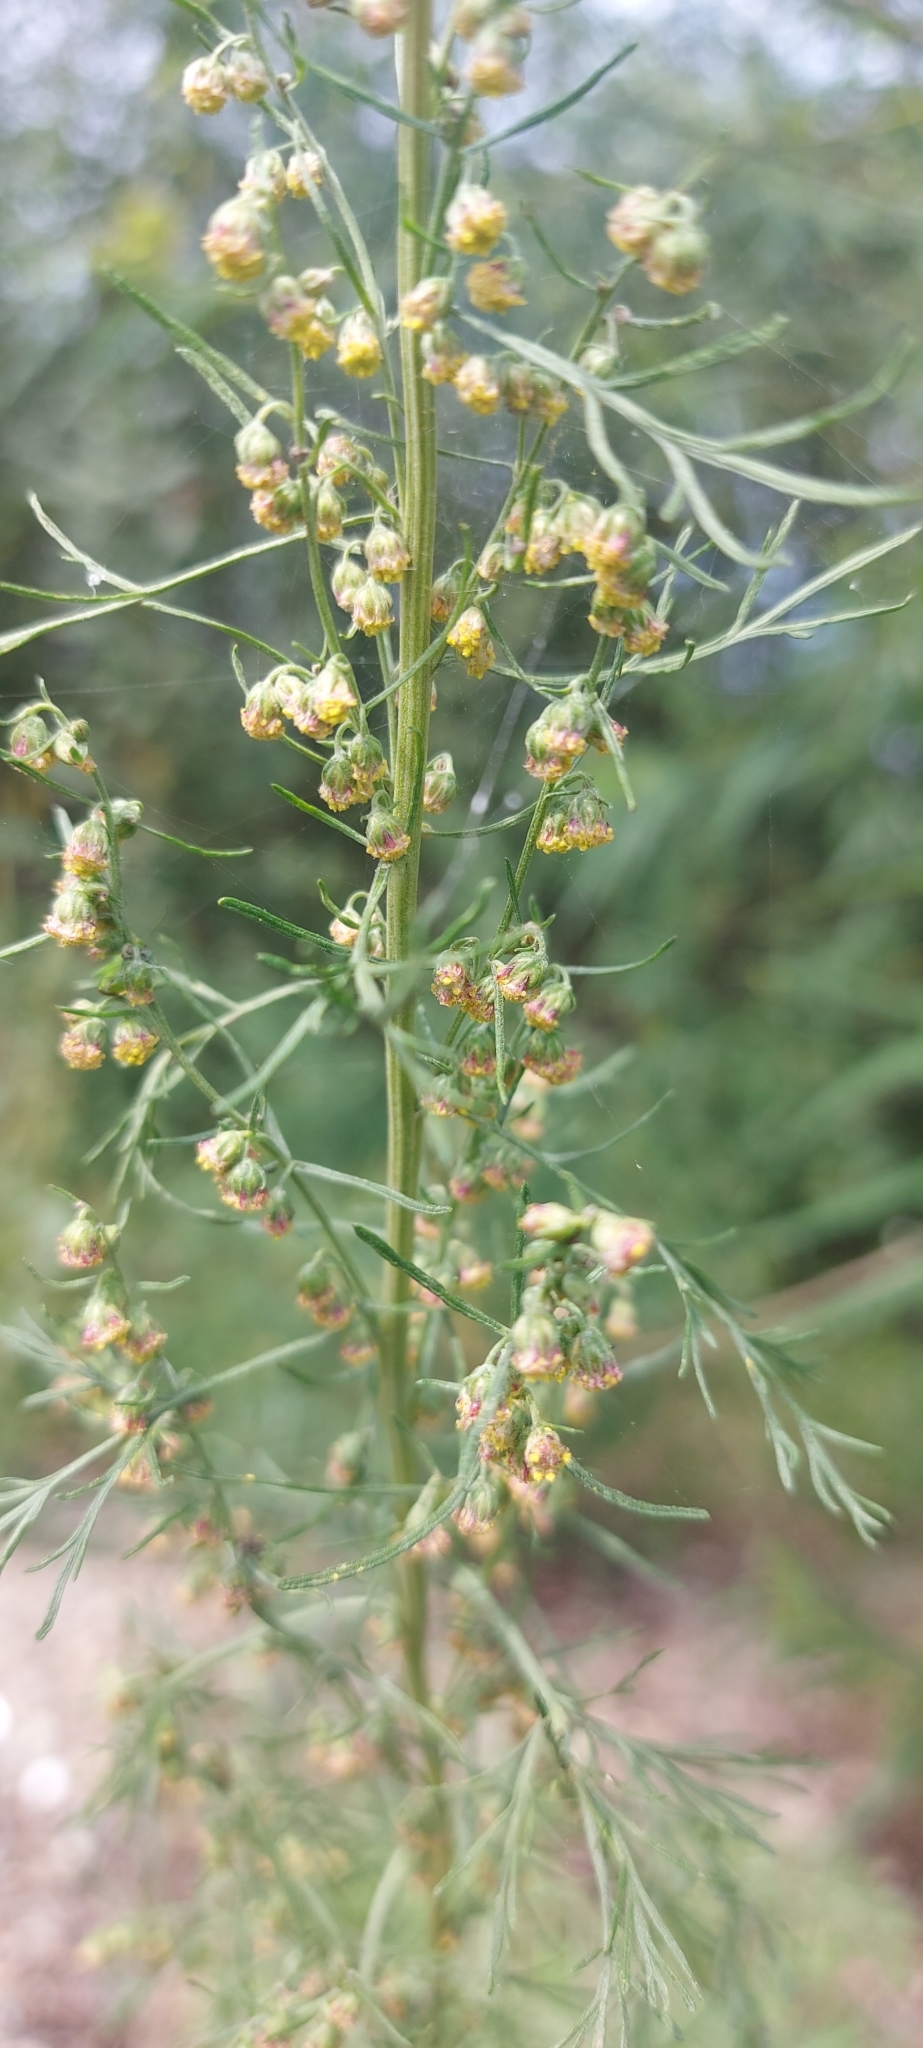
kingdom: Plantae
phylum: Tracheophyta
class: Magnoliopsida
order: Asterales
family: Asteraceae
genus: Artemisia
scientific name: Artemisia abrotanum
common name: Southernwood
